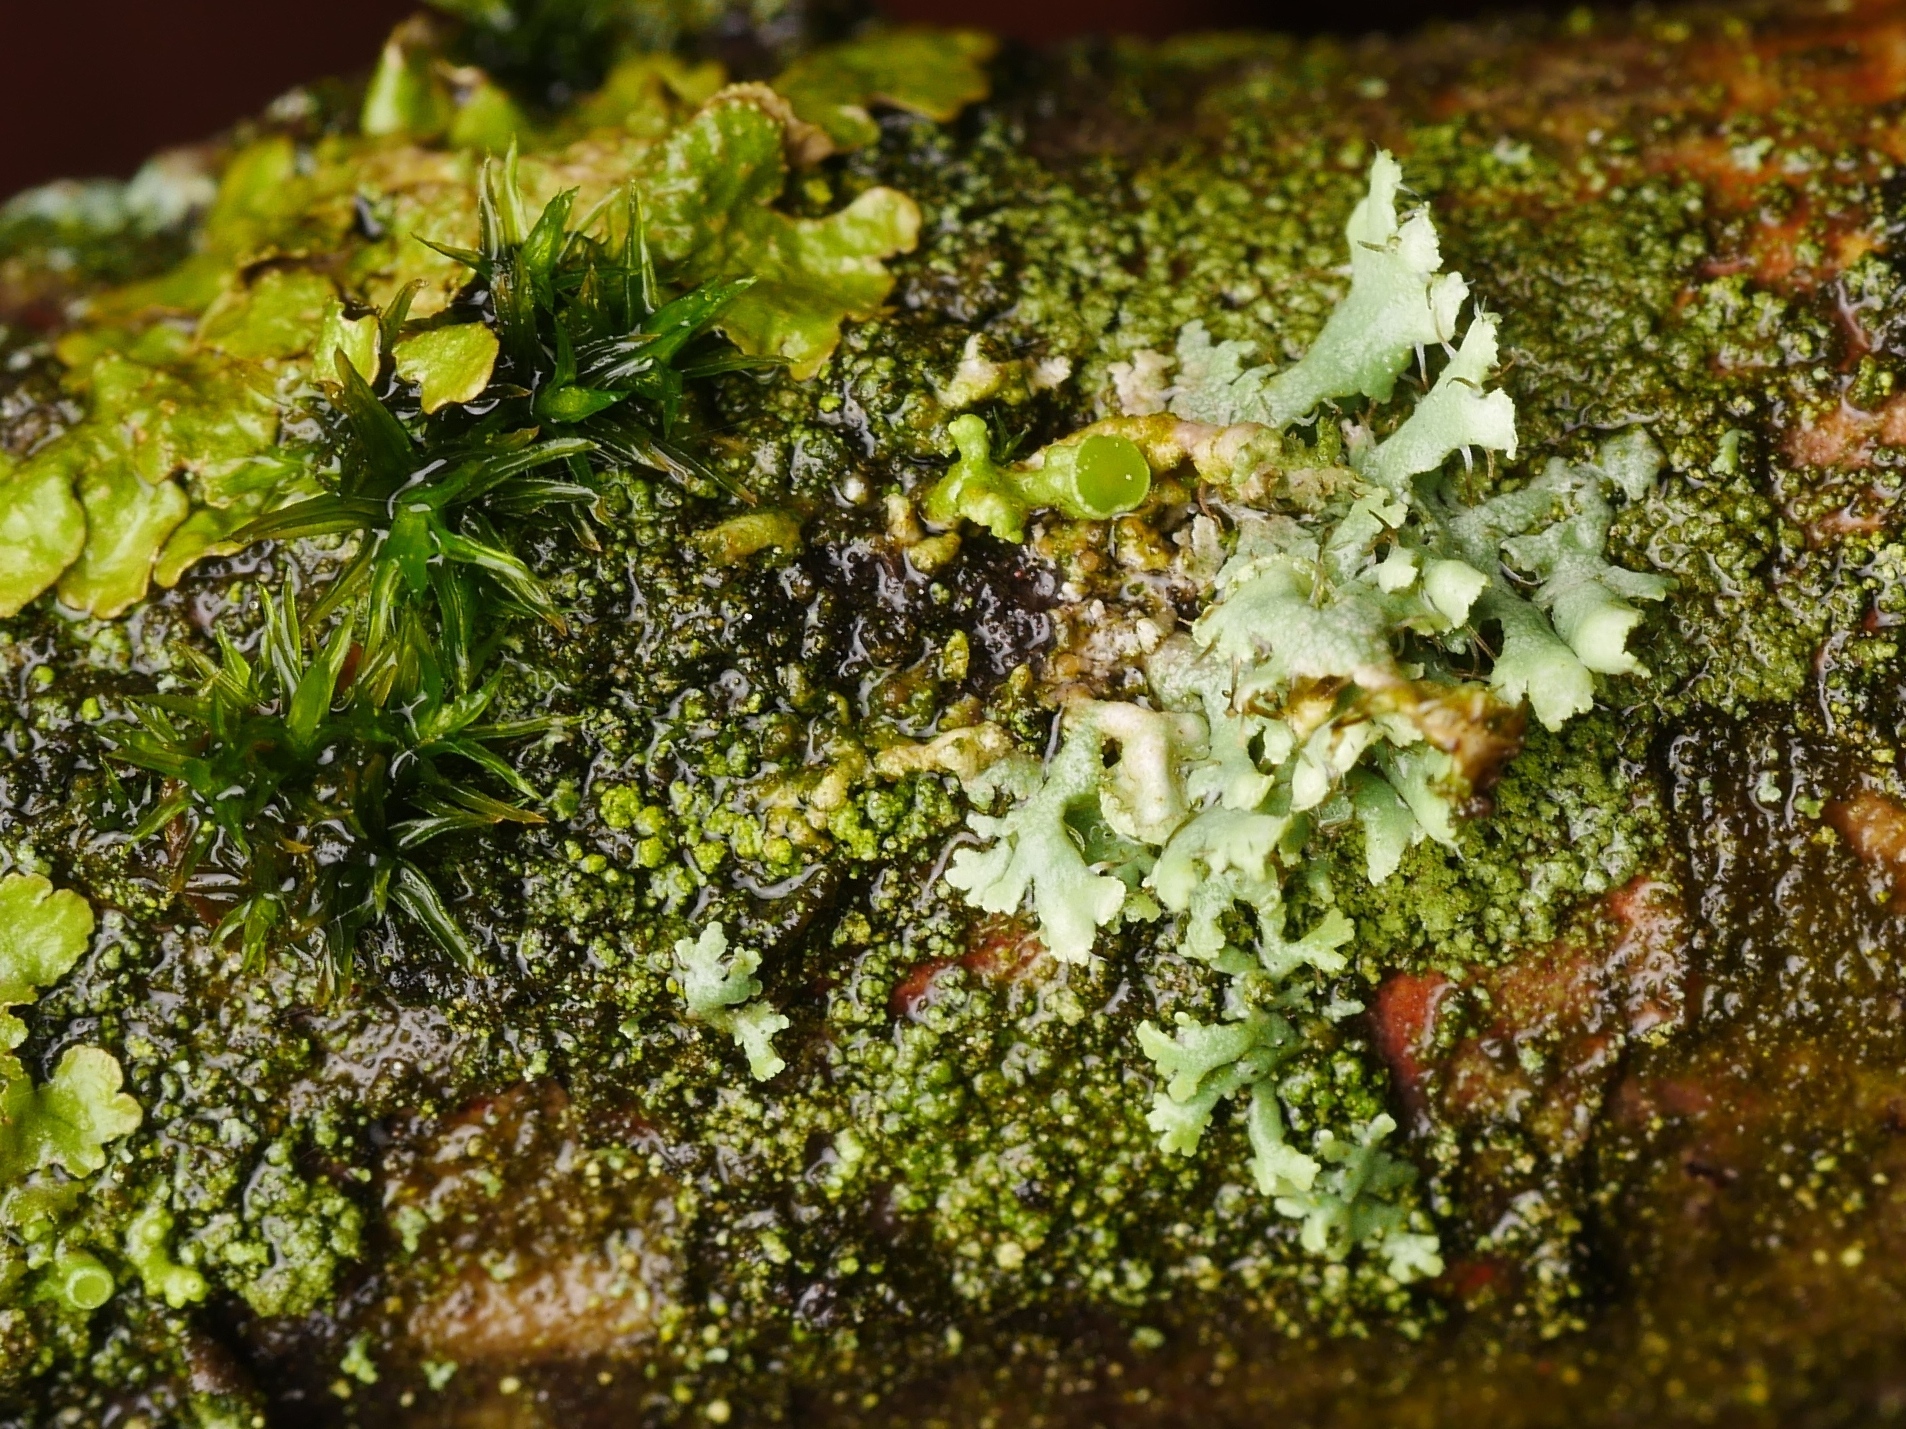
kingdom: Fungi
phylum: Ascomycota
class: Lecanoromycetes
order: Caliciales
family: Physciaceae
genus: Physcia
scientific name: Physcia adscendens
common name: Hooded rosette lichen
